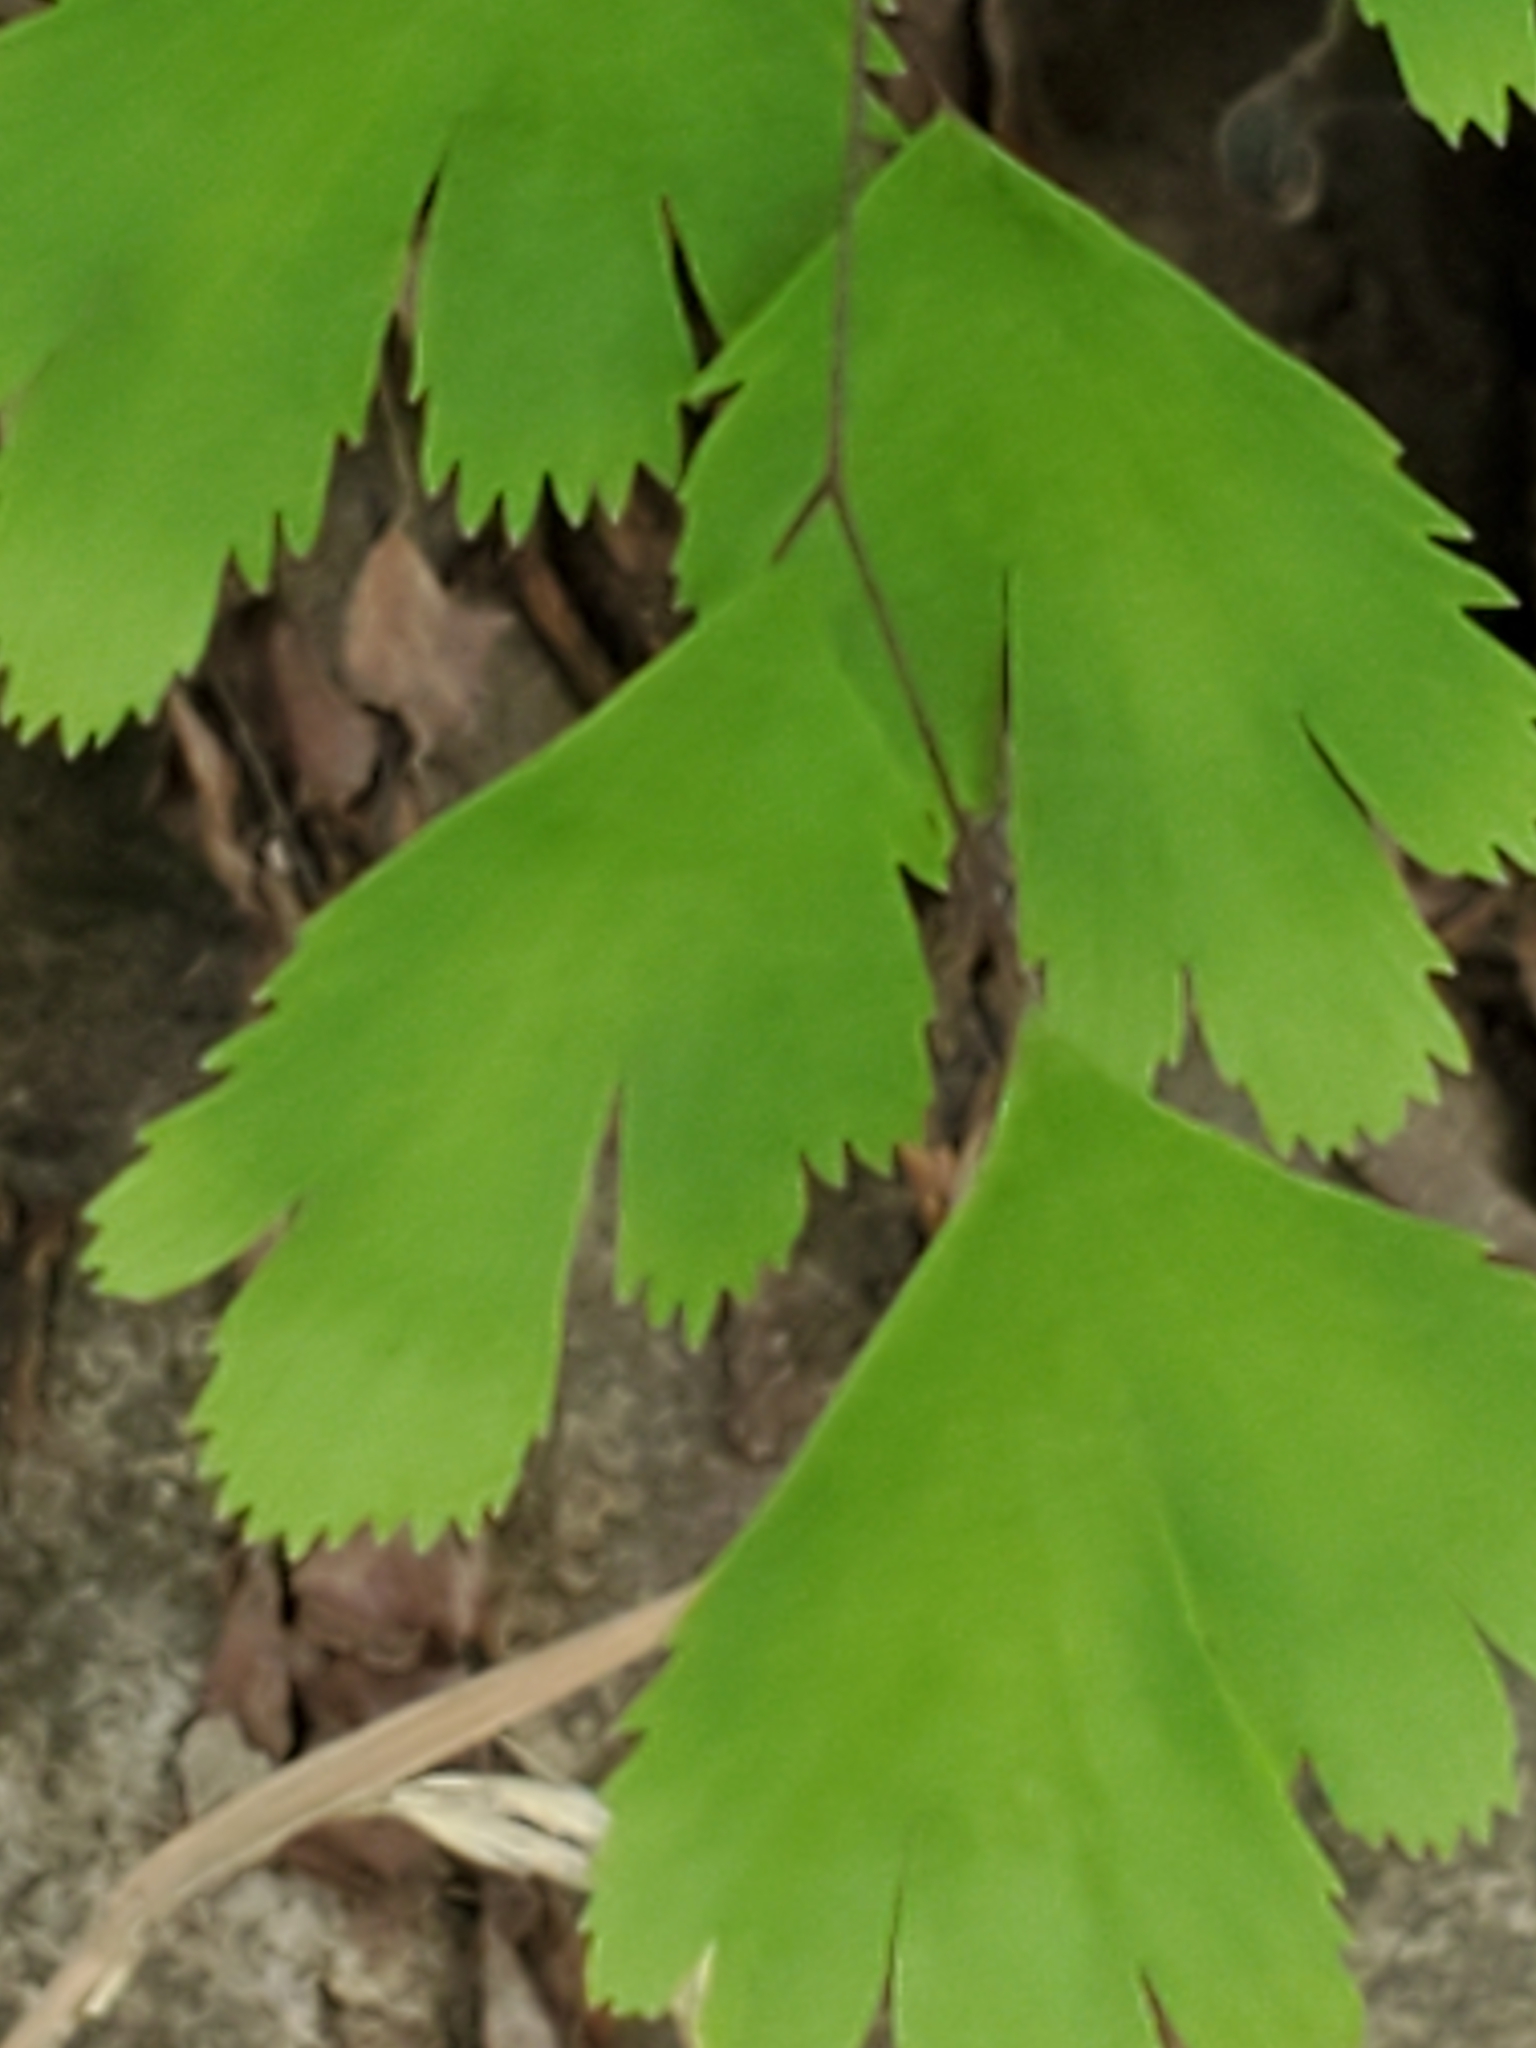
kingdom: Plantae
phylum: Tracheophyta
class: Polypodiopsida
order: Polypodiales
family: Pteridaceae
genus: Adiantum
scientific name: Adiantum capillus-veneris
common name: Maidenhair fern
